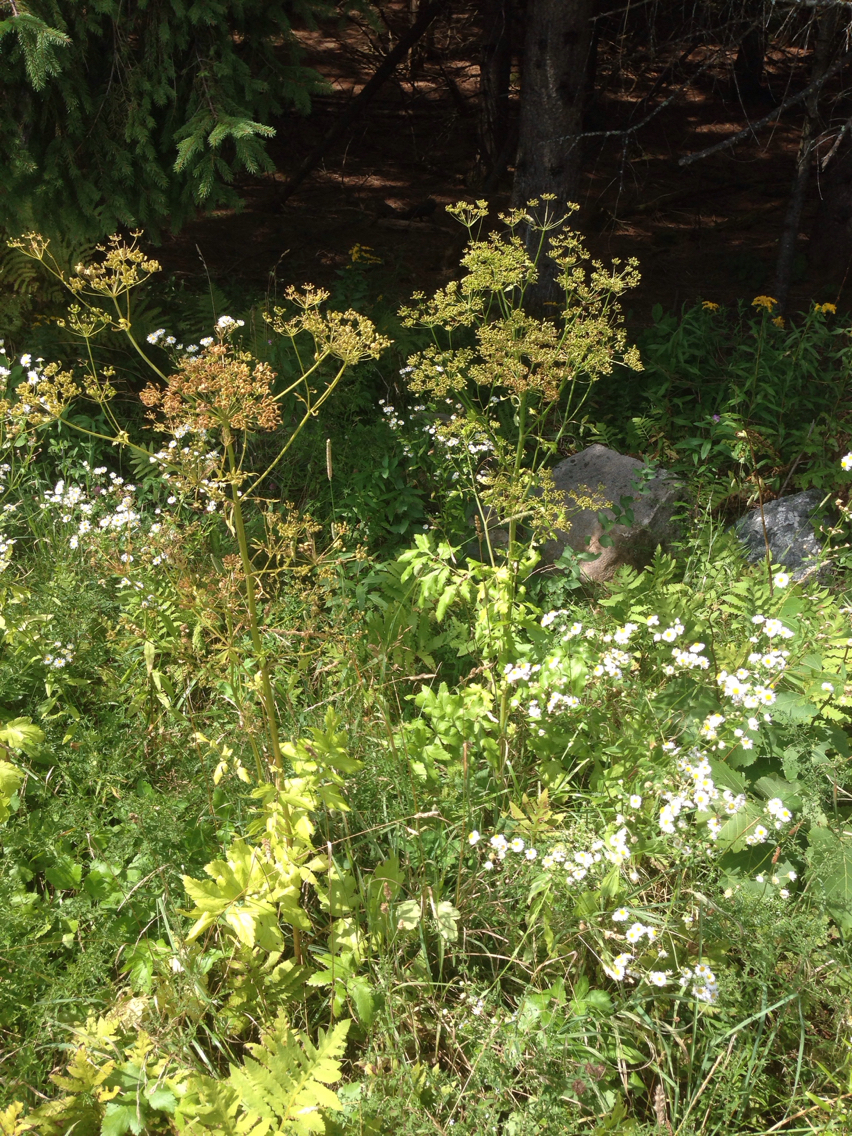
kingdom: Plantae
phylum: Tracheophyta
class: Magnoliopsida
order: Apiales
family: Apiaceae
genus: Pastinaca
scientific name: Pastinaca sativa
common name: Wild parsnip
